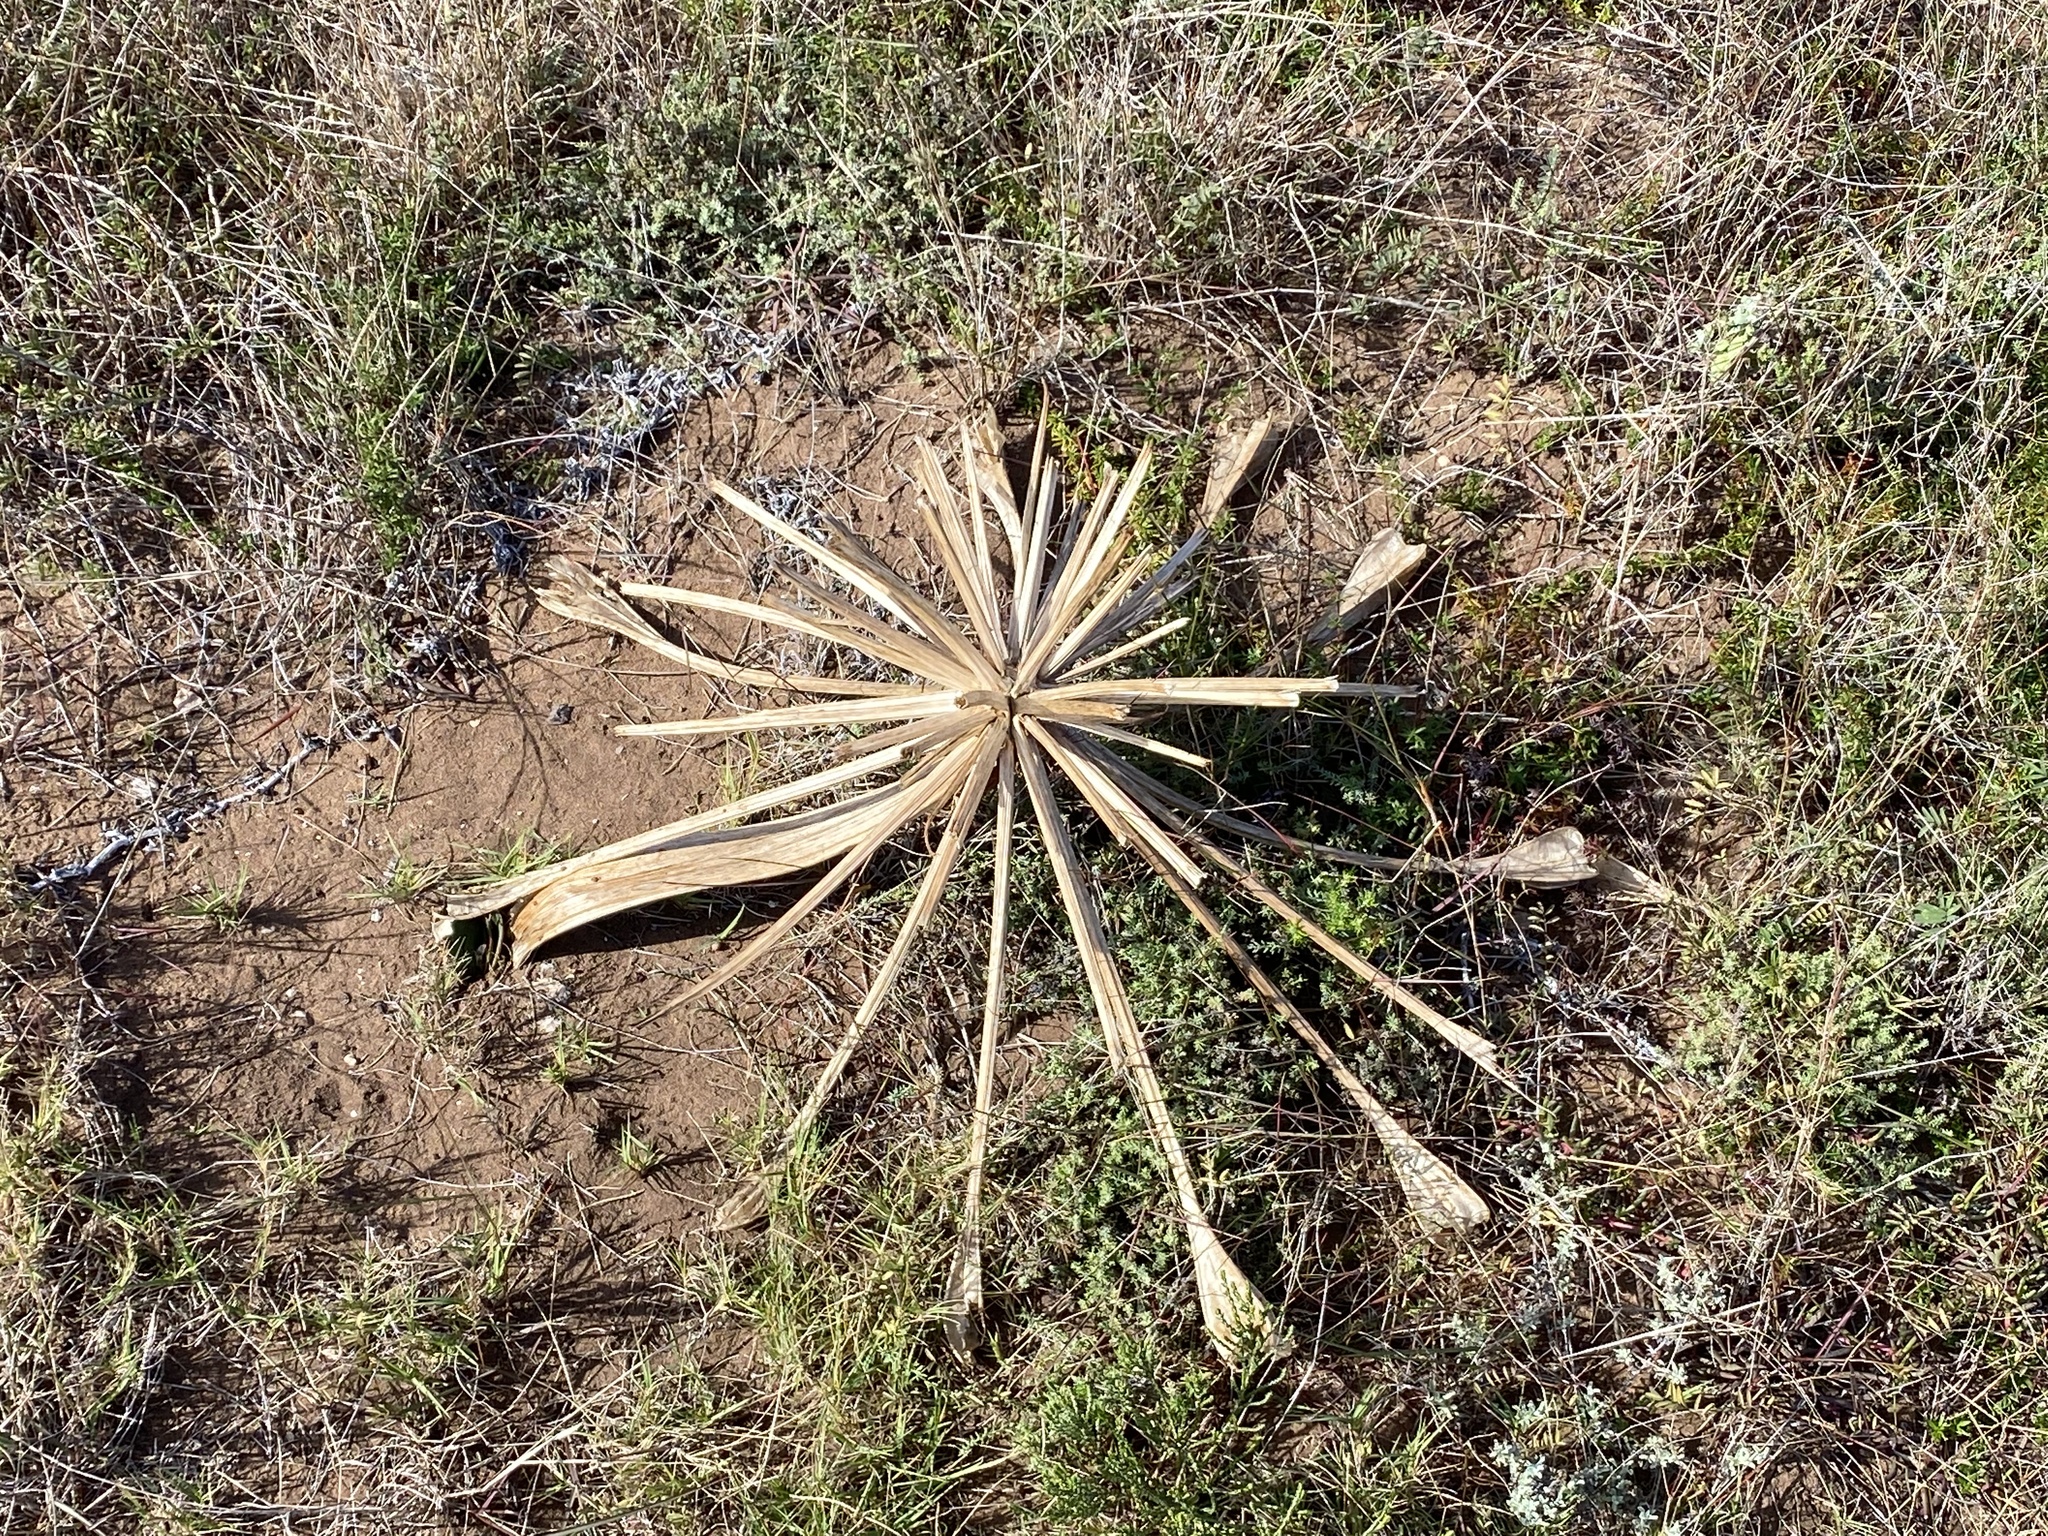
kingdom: Plantae
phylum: Tracheophyta
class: Liliopsida
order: Asparagales
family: Amaryllidaceae
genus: Brunsvigia
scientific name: Brunsvigia orientalis
